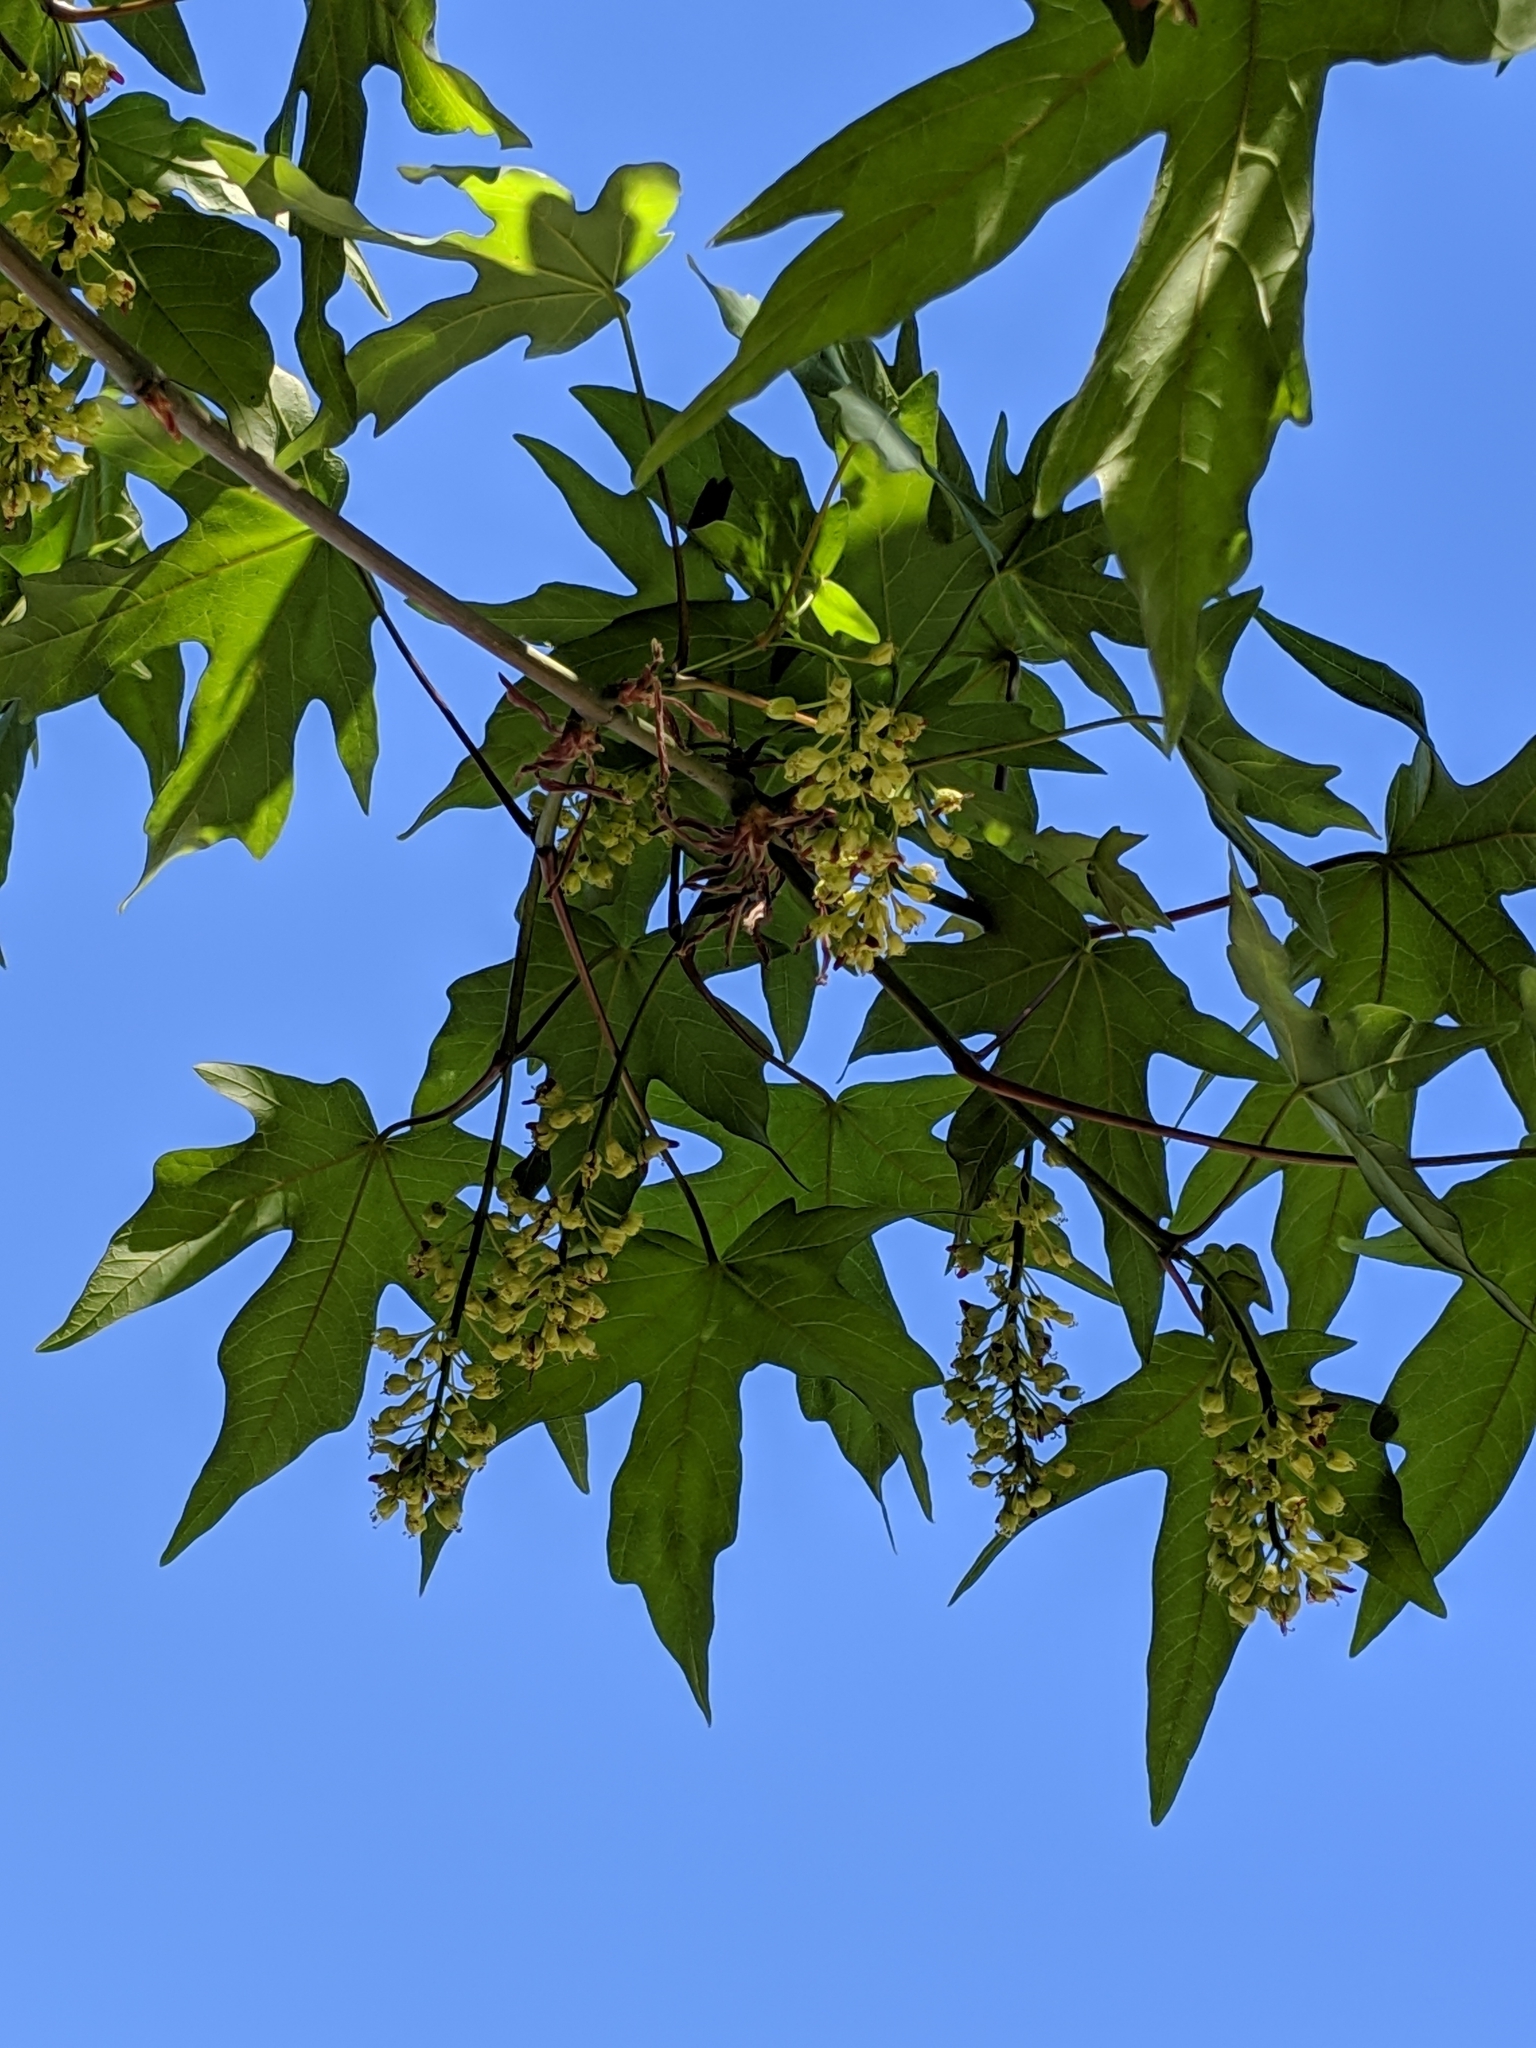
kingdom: Plantae
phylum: Tracheophyta
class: Magnoliopsida
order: Sapindales
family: Sapindaceae
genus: Acer
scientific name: Acer macrophyllum
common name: Oregon maple
